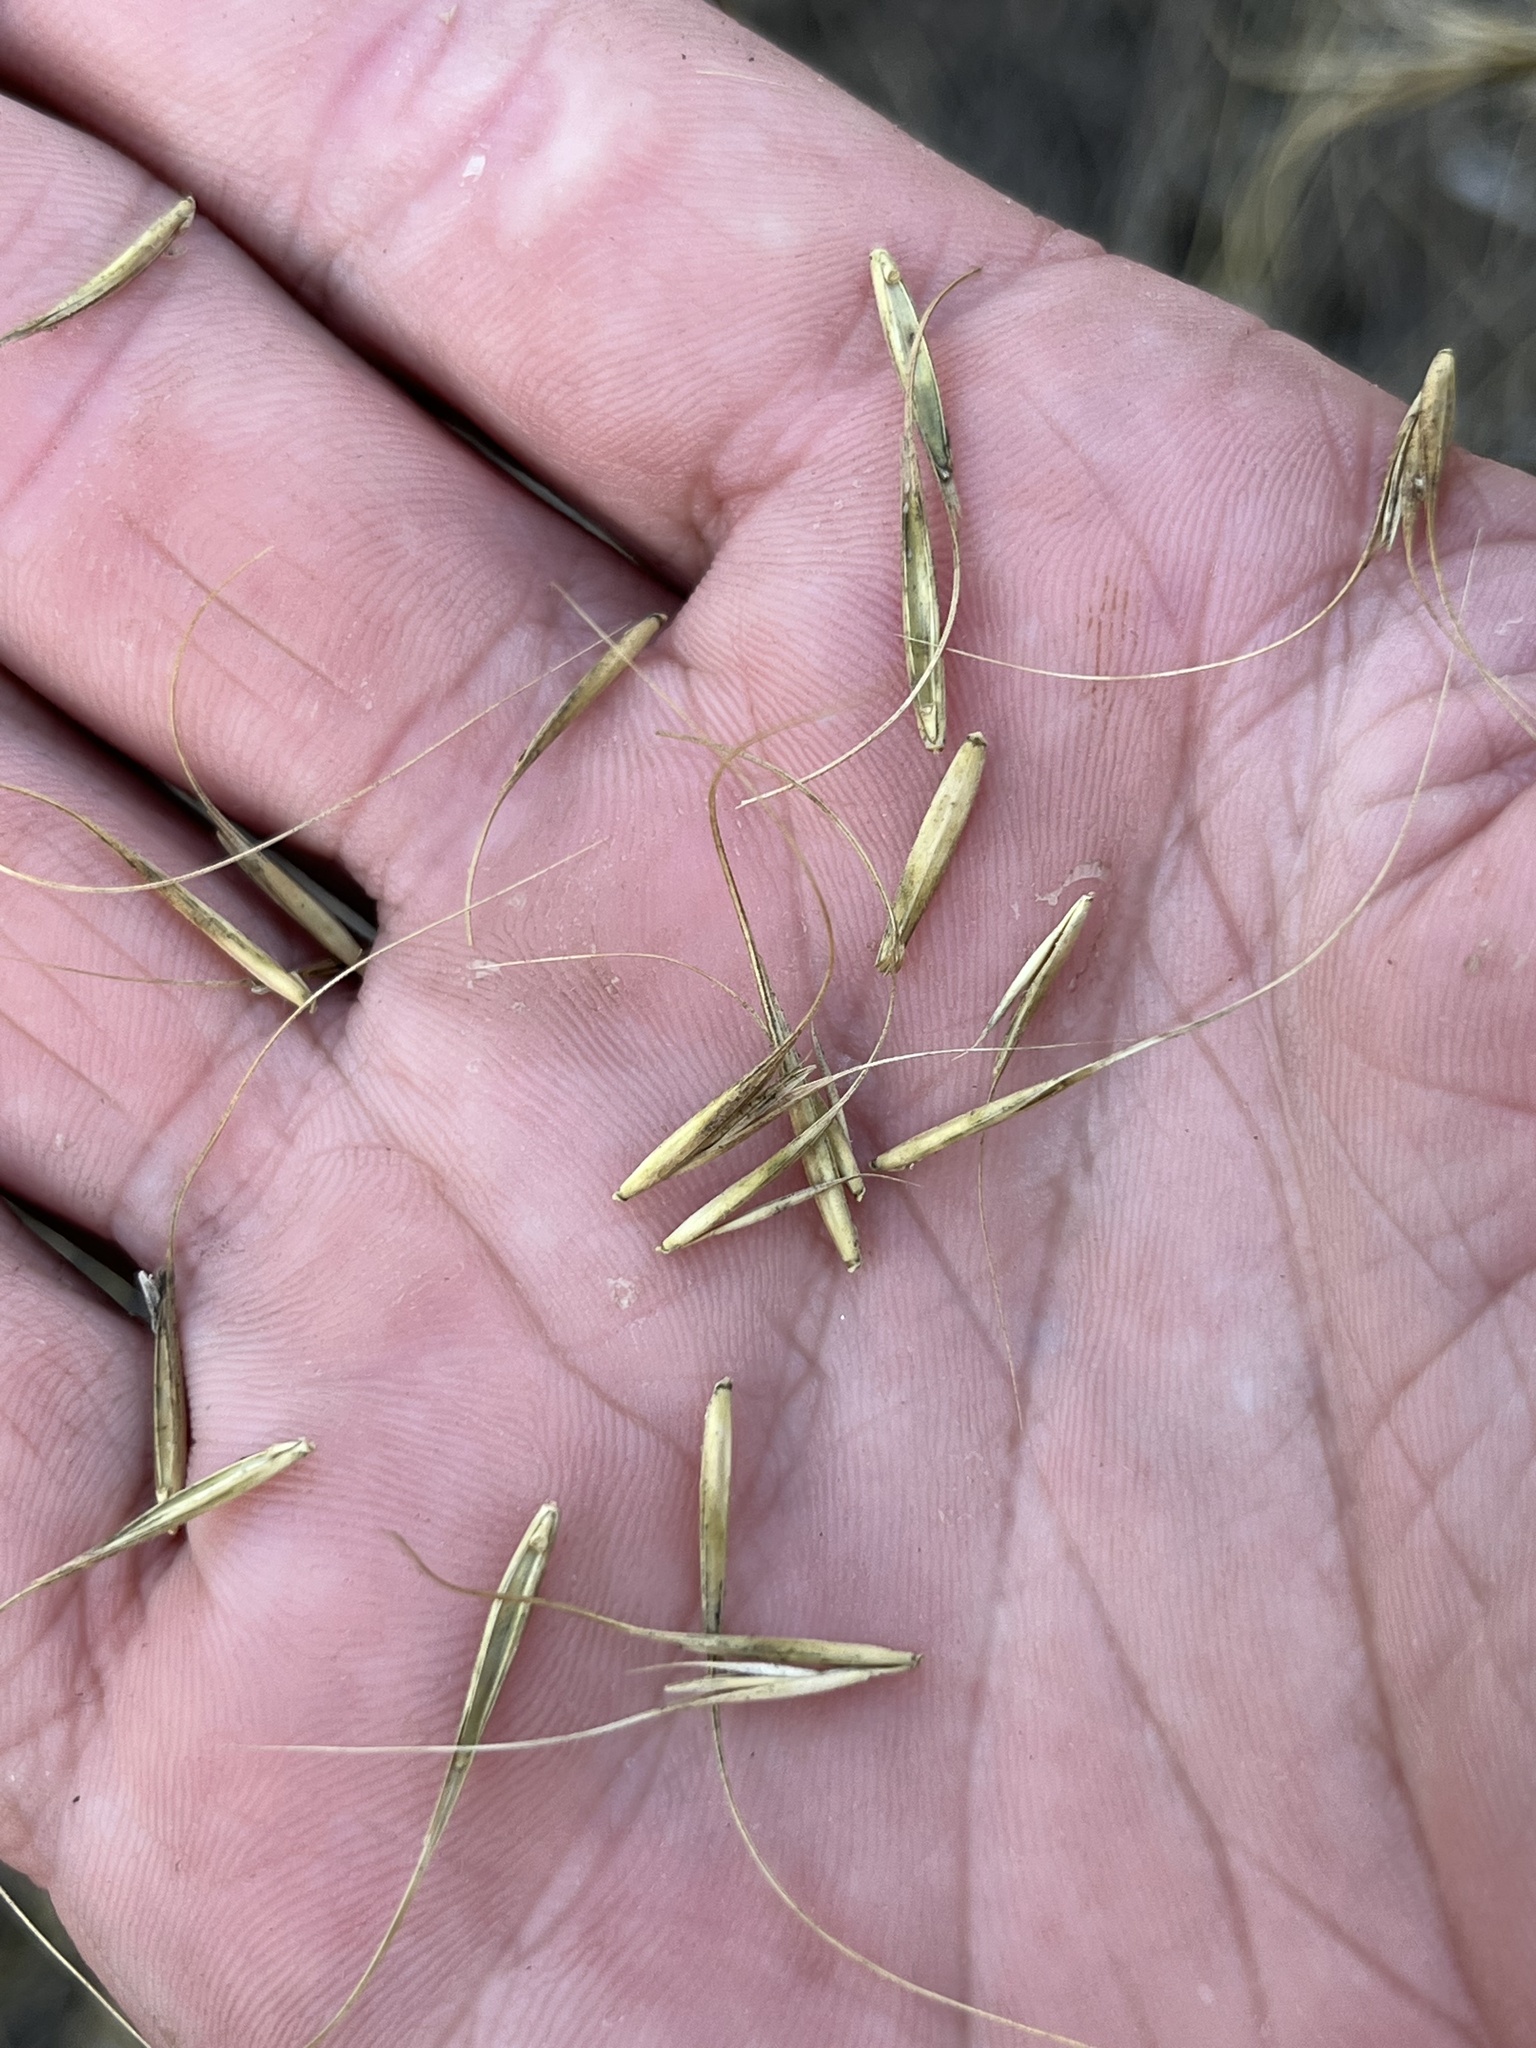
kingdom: Plantae
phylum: Tracheophyta
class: Liliopsida
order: Poales
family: Poaceae
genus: Elymus
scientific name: Elymus canadensis
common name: Canada wild rye
